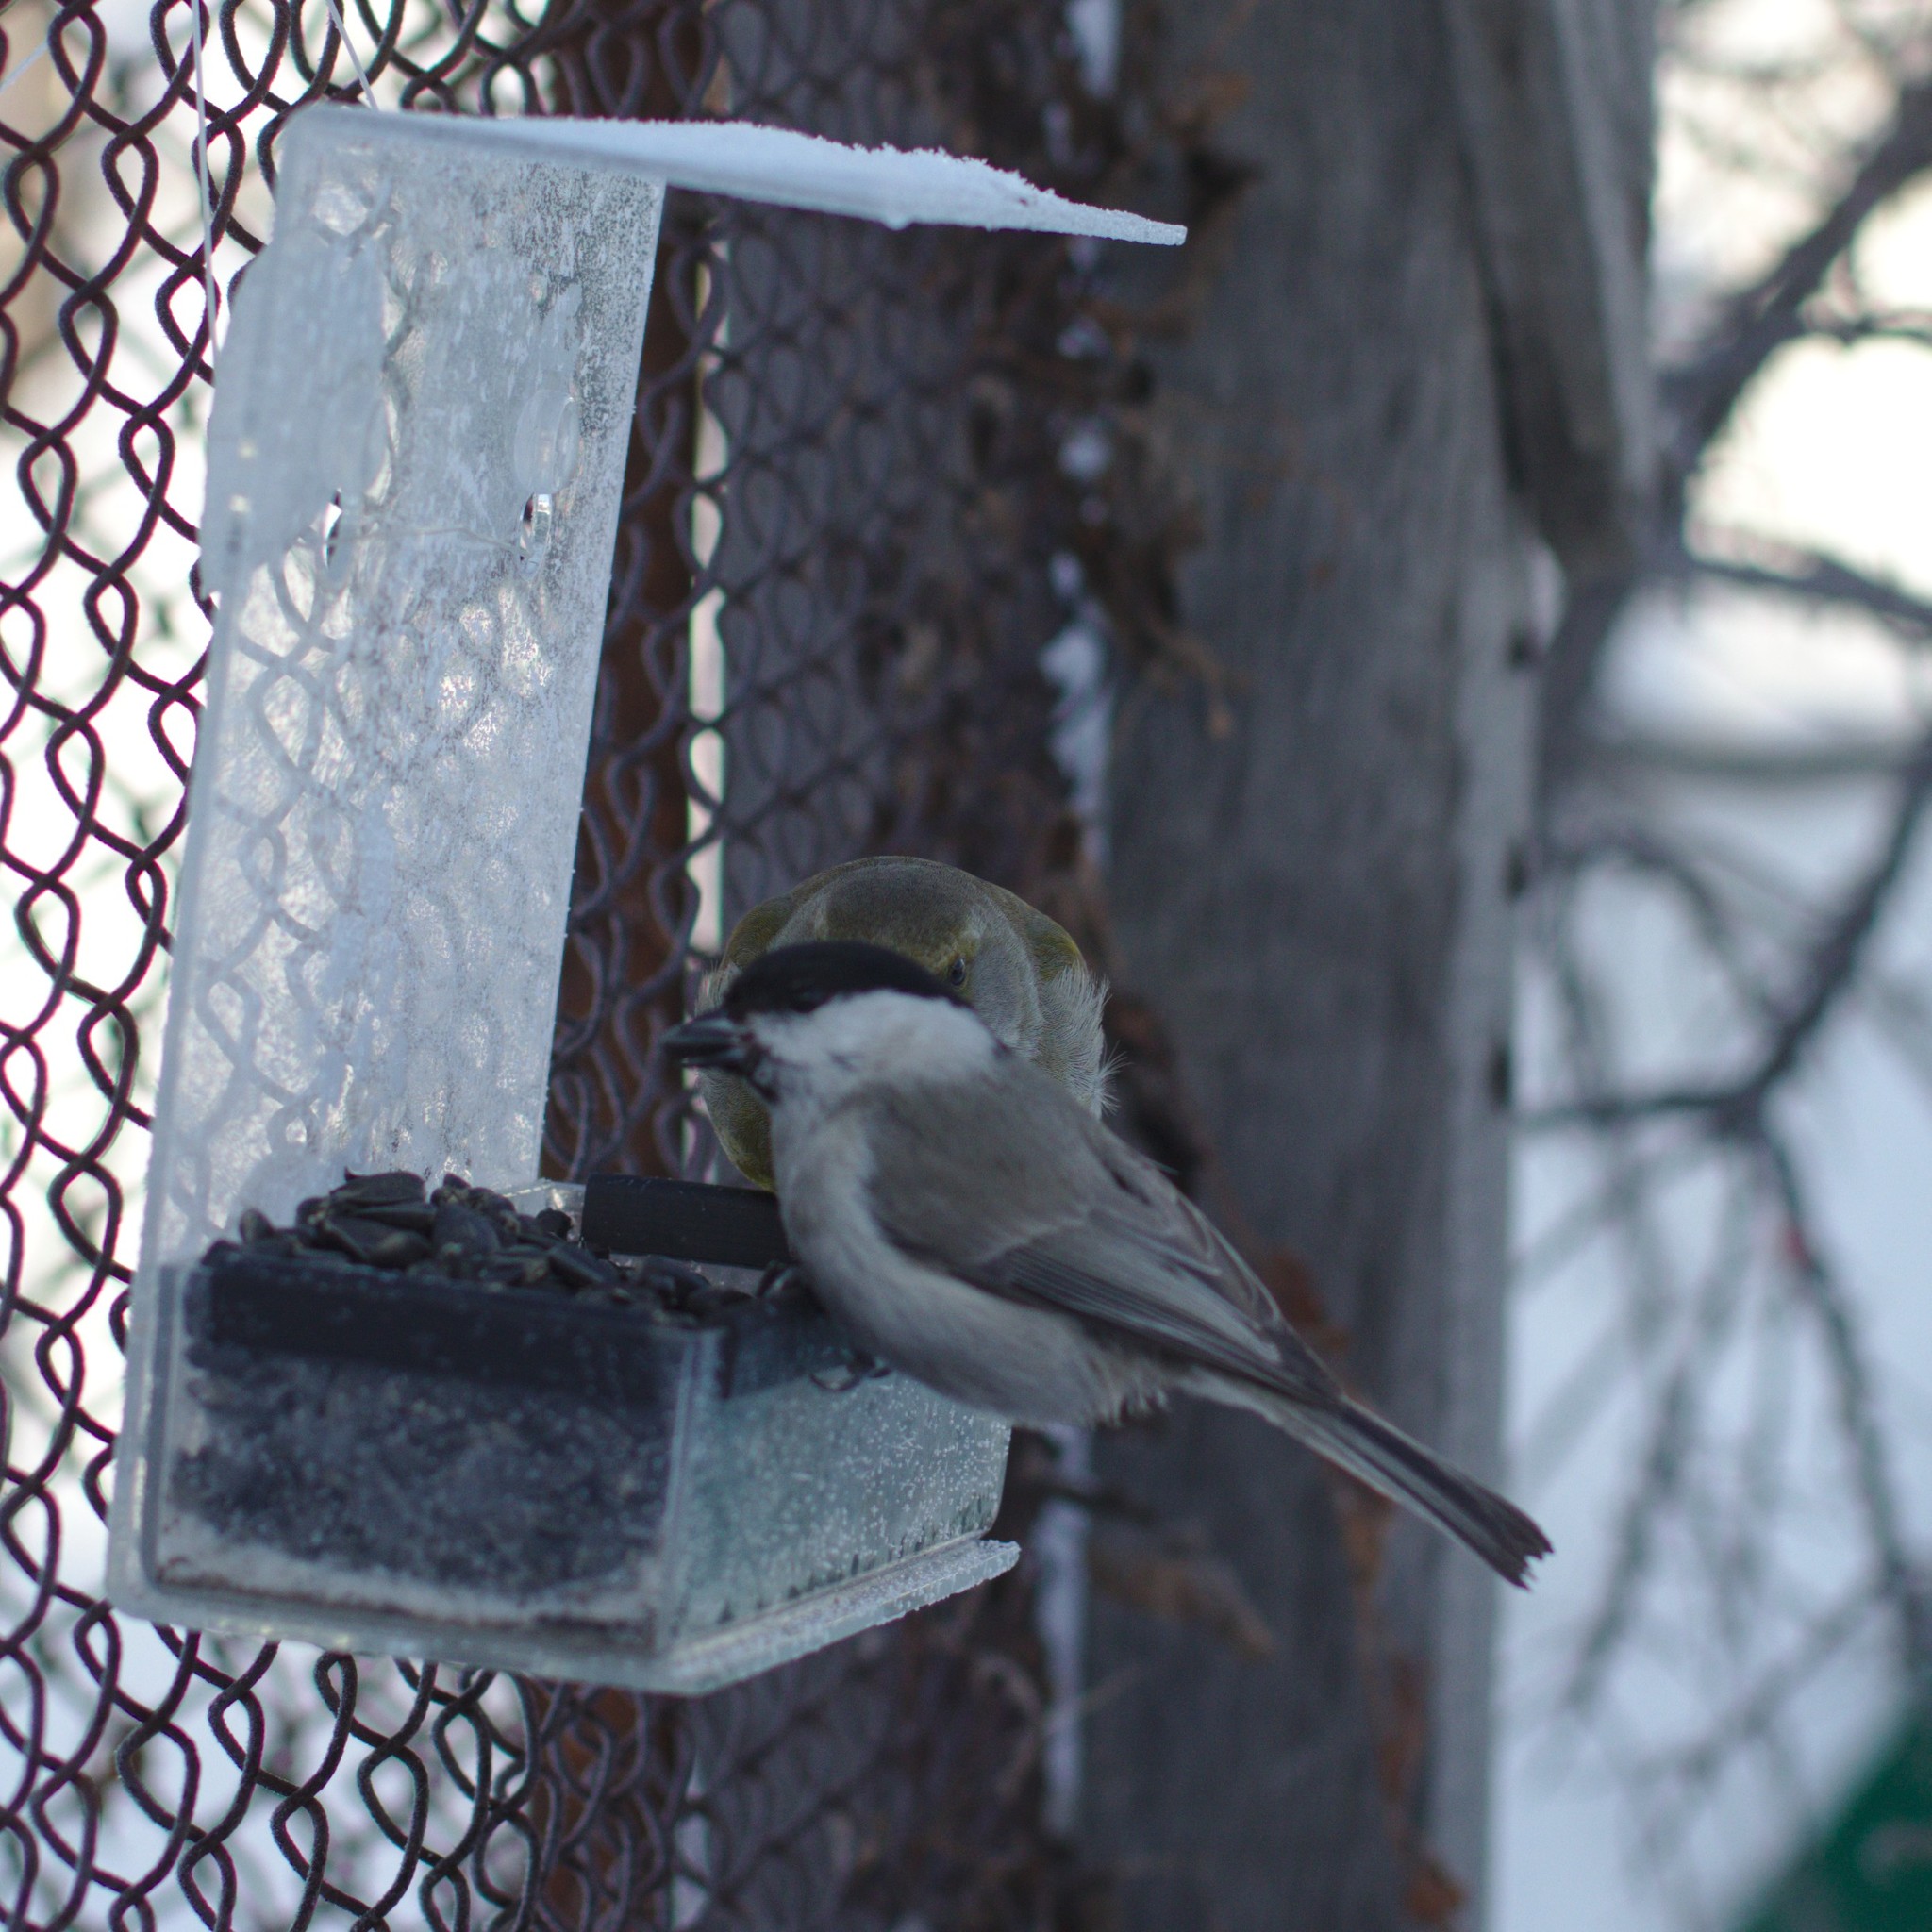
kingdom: Animalia
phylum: Chordata
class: Aves
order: Passeriformes
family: Paridae
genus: Poecile
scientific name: Poecile palustris
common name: Marsh tit
